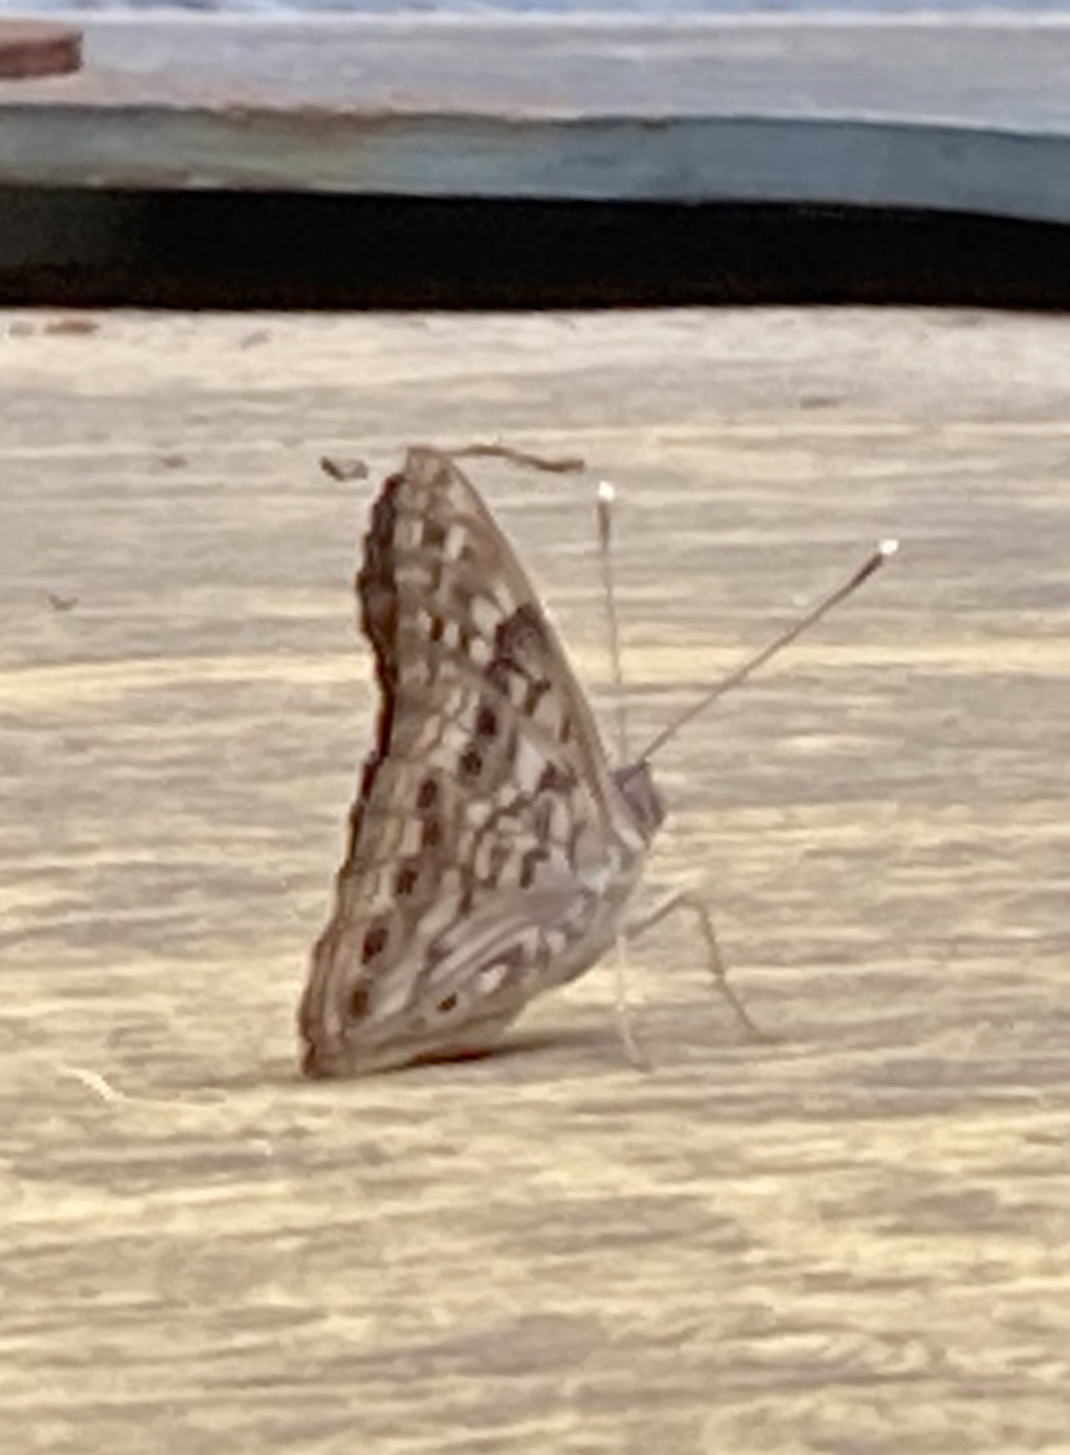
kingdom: Animalia
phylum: Arthropoda
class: Insecta
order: Lepidoptera
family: Nymphalidae
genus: Asterocampa
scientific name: Asterocampa celtis
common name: Hackberry emperor
